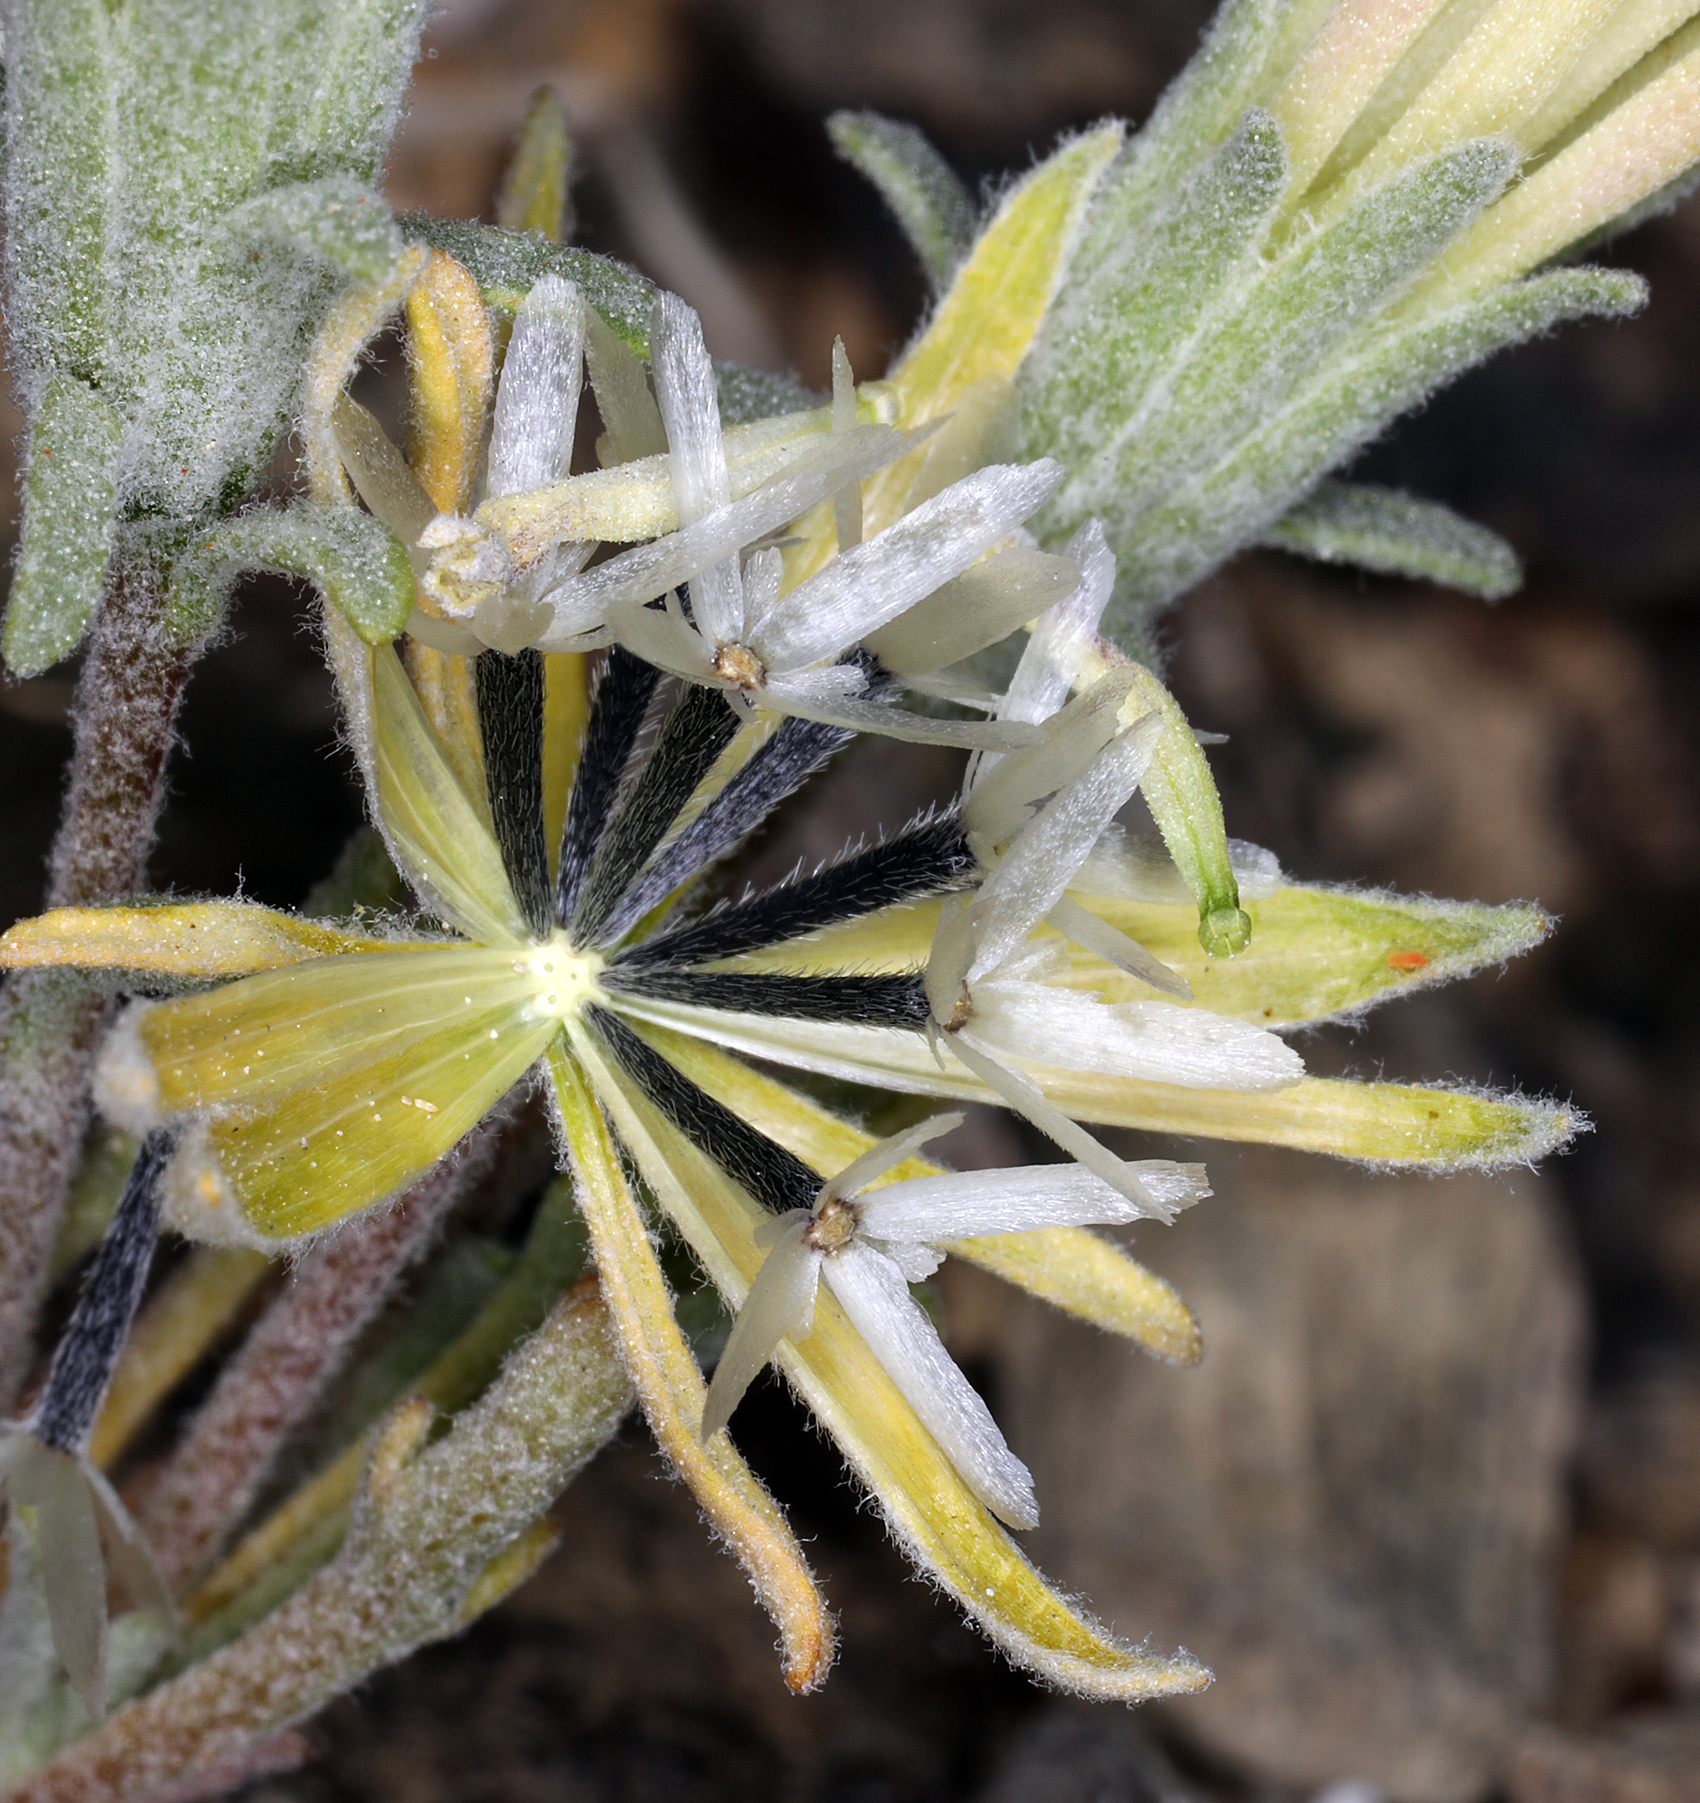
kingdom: Plantae
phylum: Tracheophyta
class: Magnoliopsida
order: Asterales
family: Asteraceae
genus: Chaenactis
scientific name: Chaenactis macrantha
